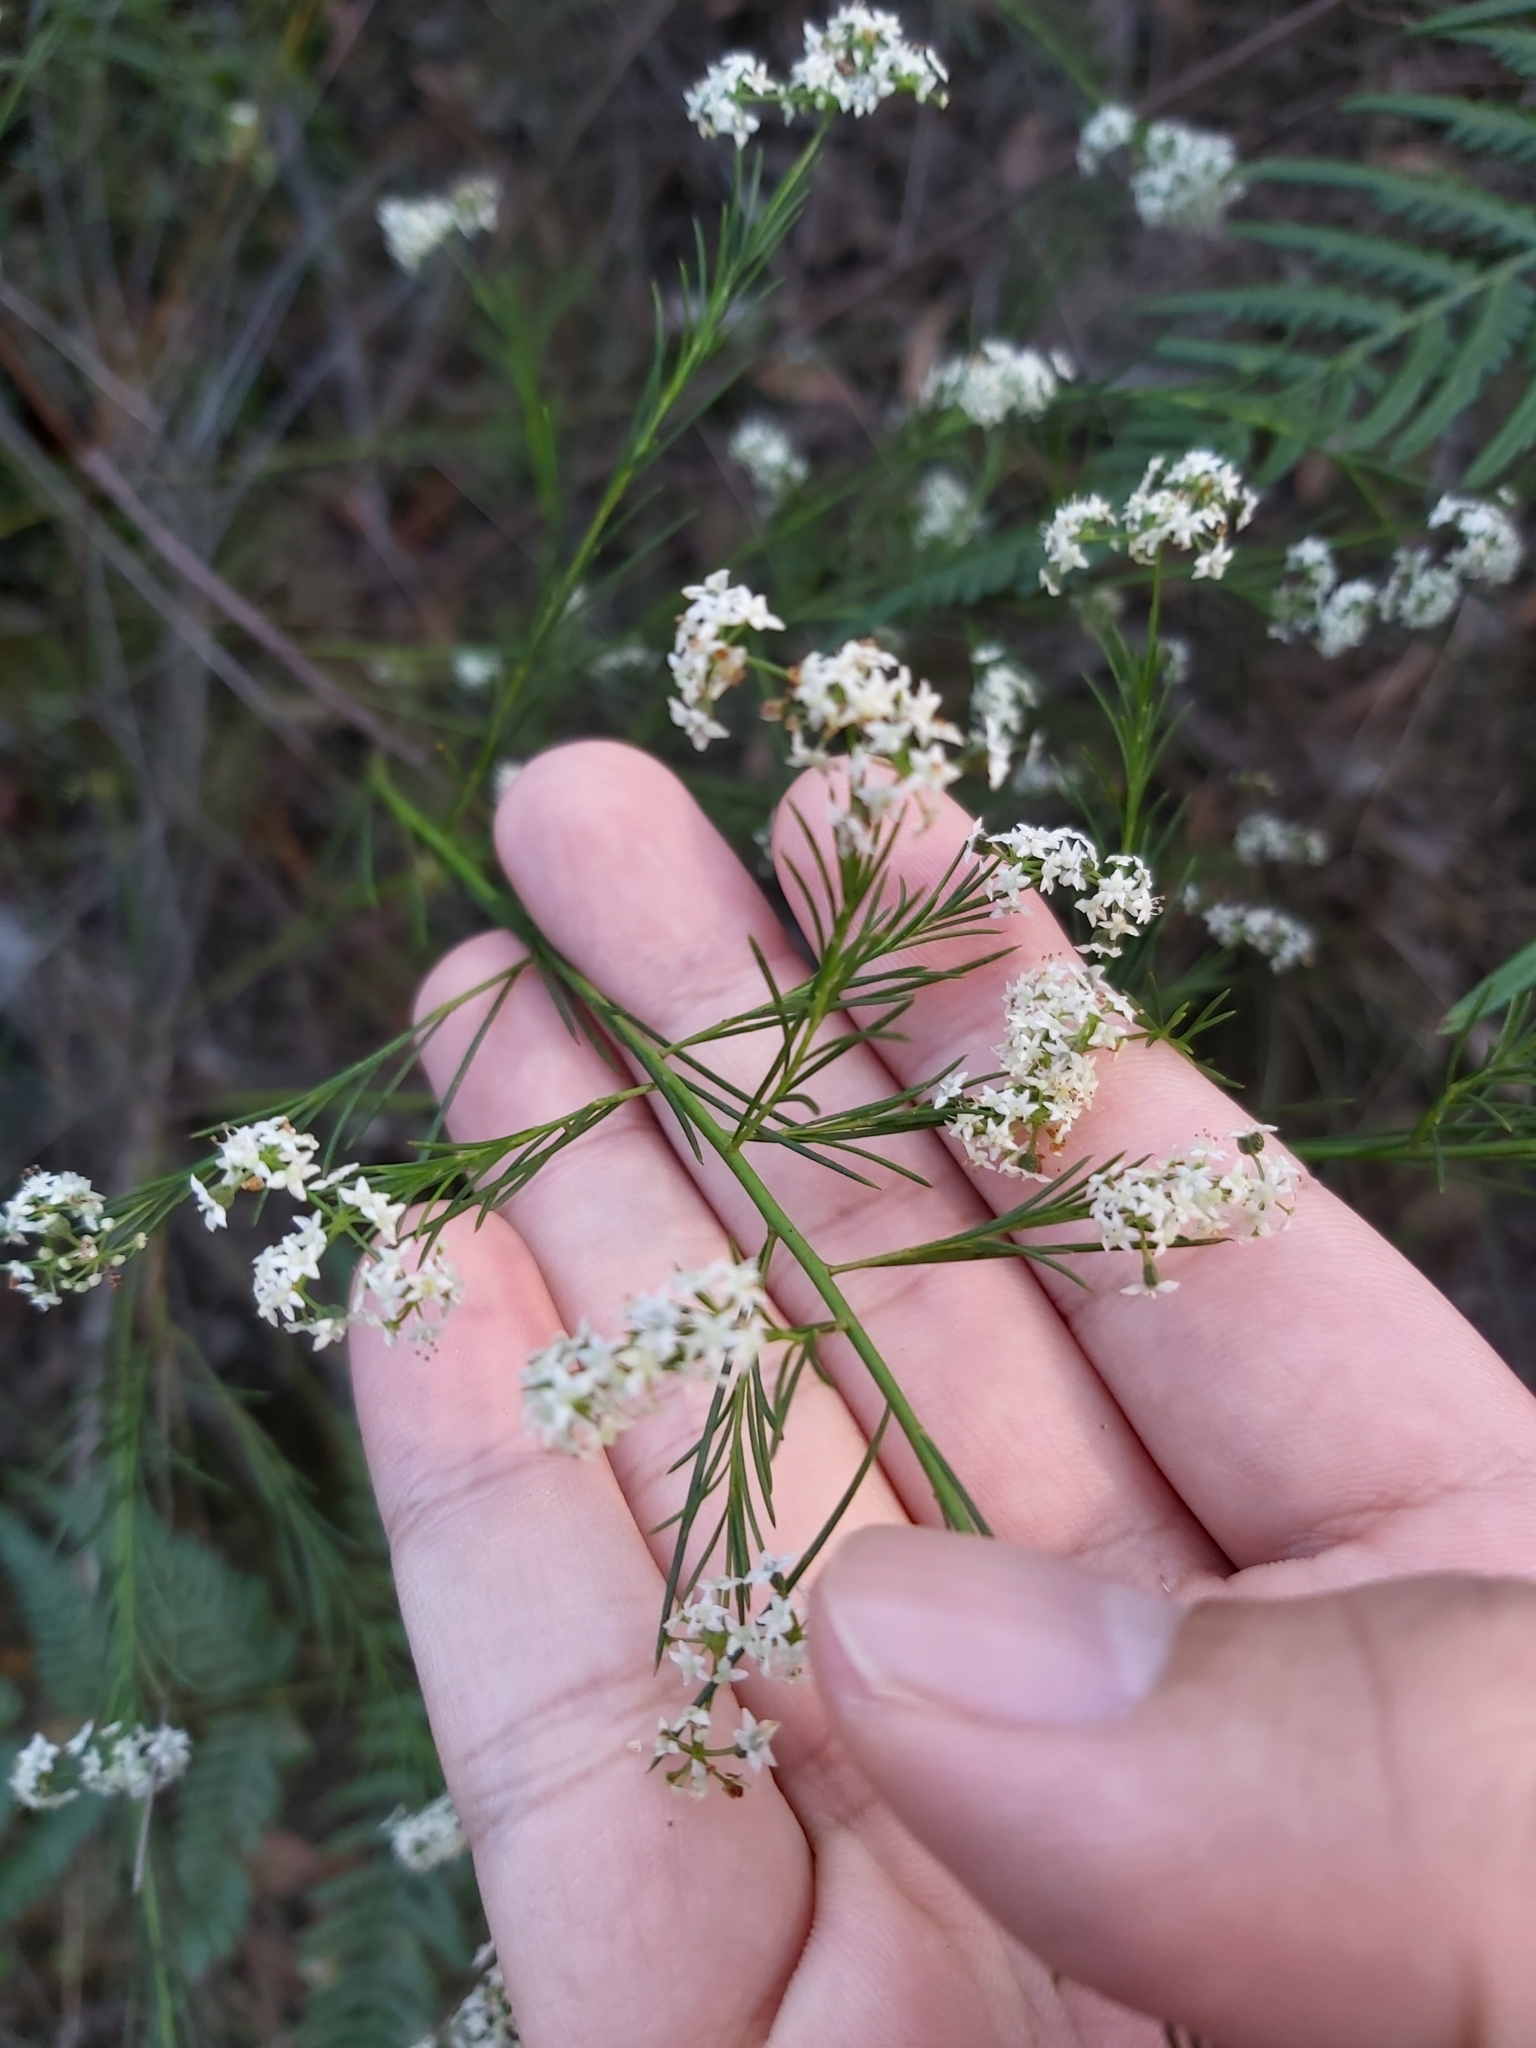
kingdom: Plantae
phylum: Tracheophyta
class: Magnoliopsida
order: Apiales
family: Apiaceae
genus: Platysace
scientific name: Platysace linearifolia
